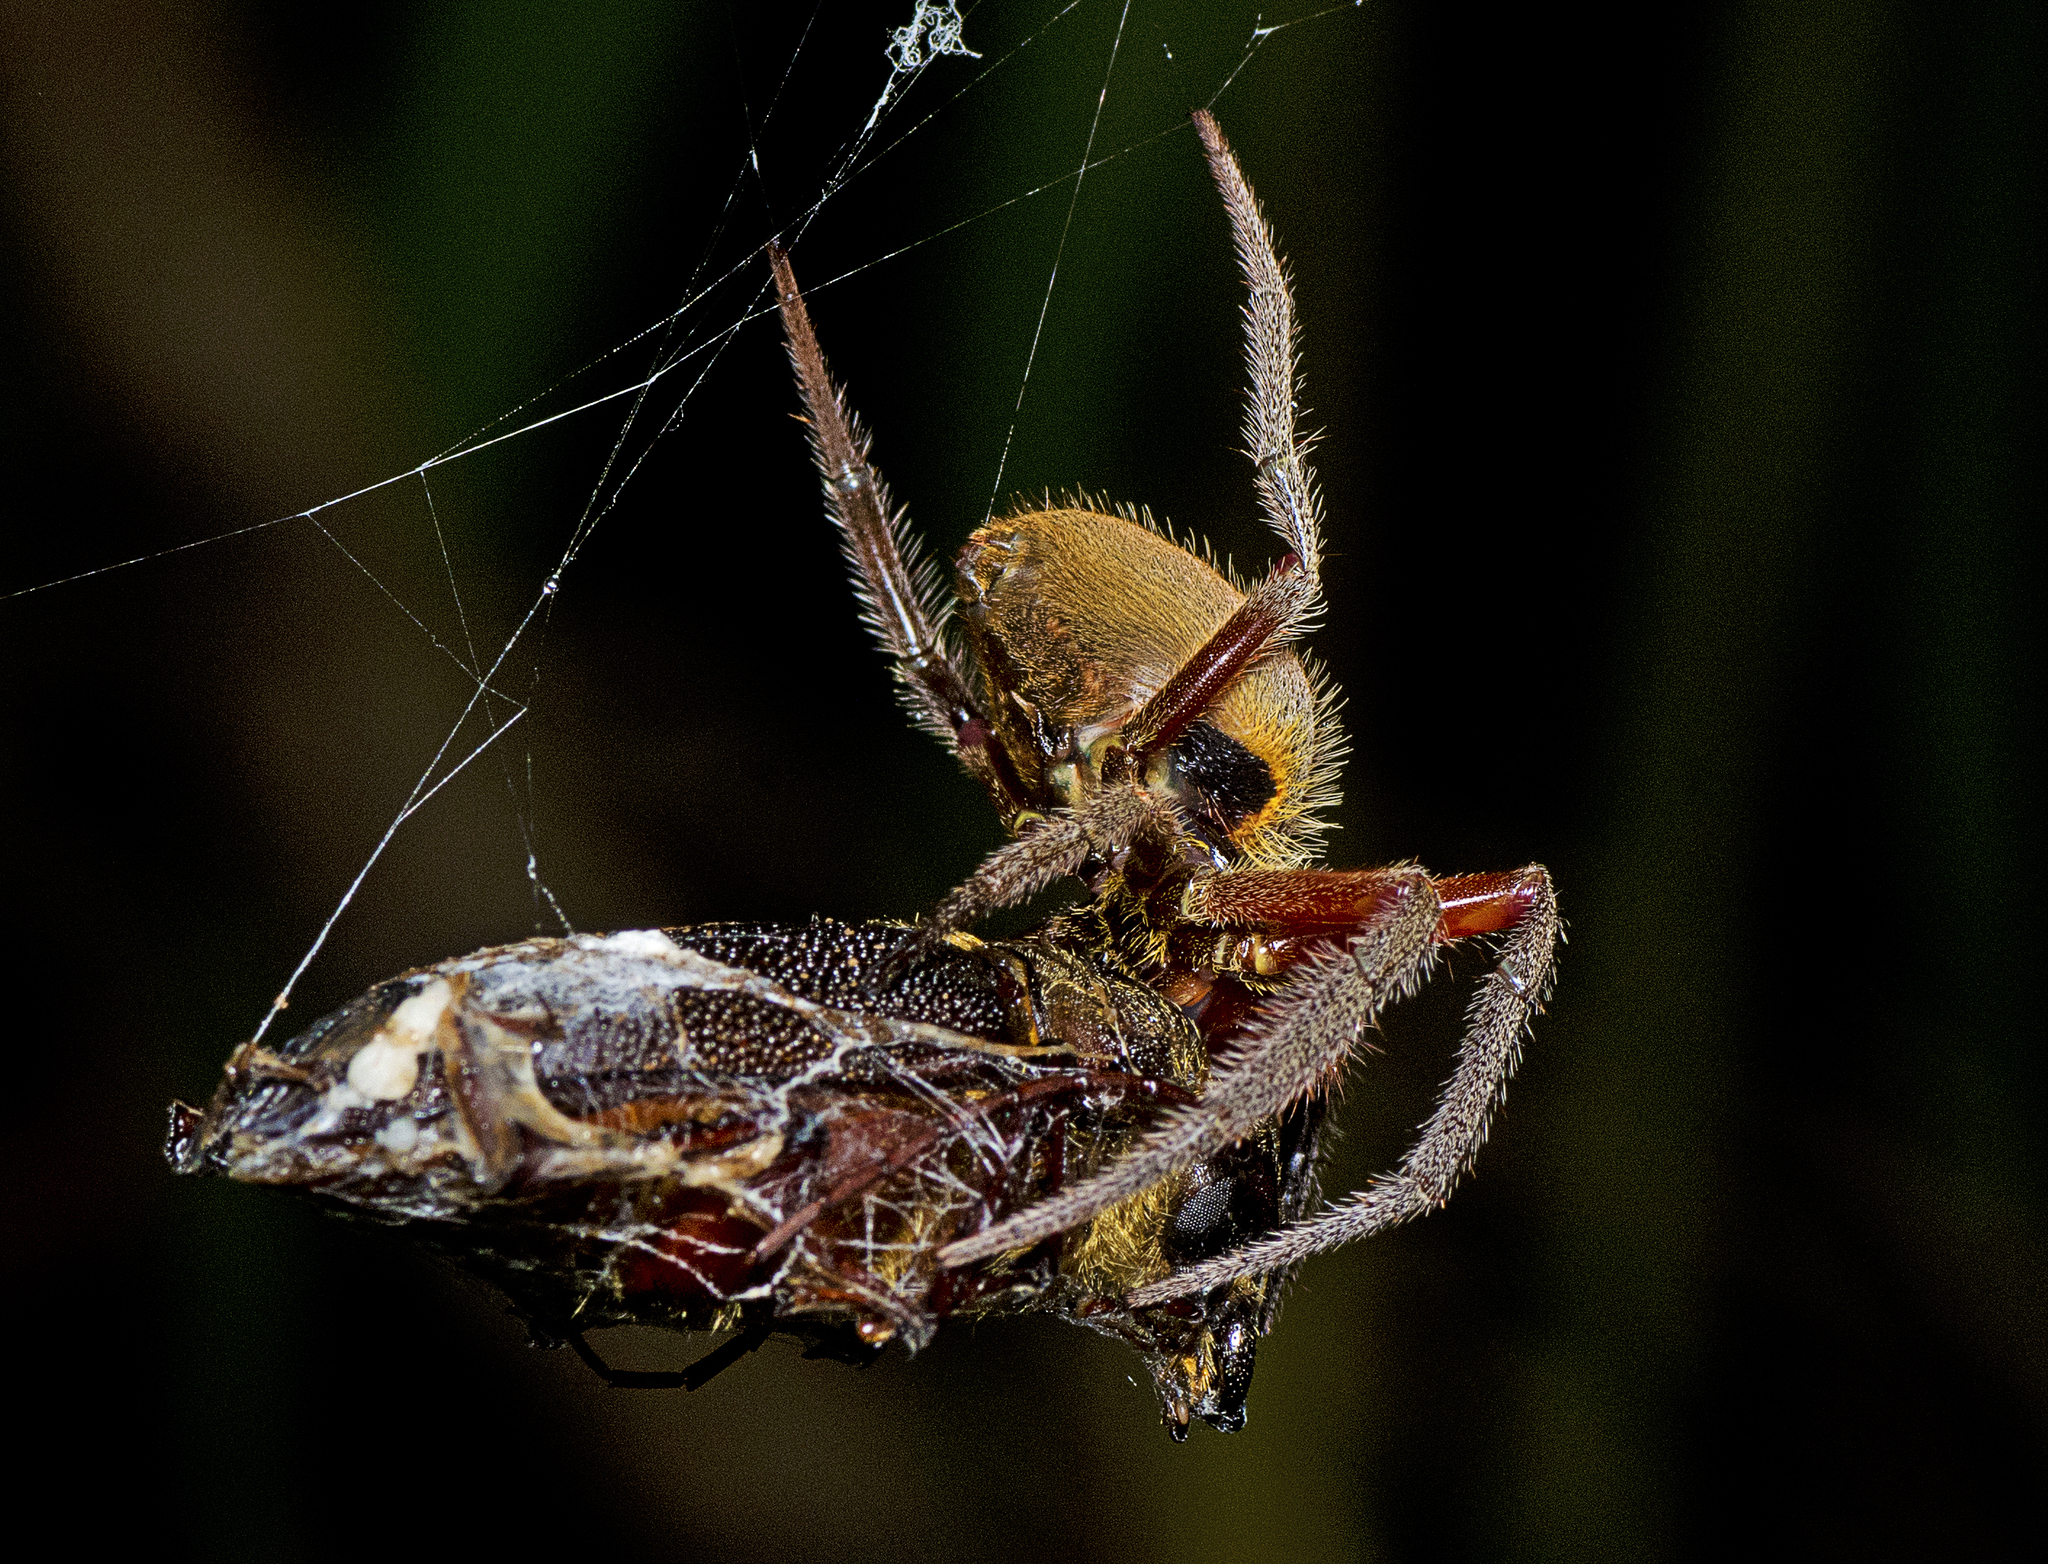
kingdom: Animalia
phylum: Arthropoda
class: Arachnida
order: Araneae
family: Araneidae
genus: Hortophora
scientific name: Hortophora transmarina
